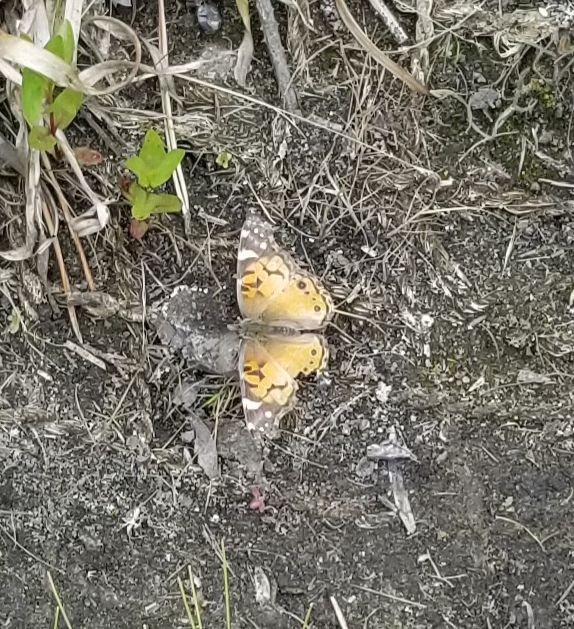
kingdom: Animalia
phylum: Arthropoda
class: Insecta
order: Lepidoptera
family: Nymphalidae
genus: Vanessa
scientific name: Vanessa virginiensis
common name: American lady
